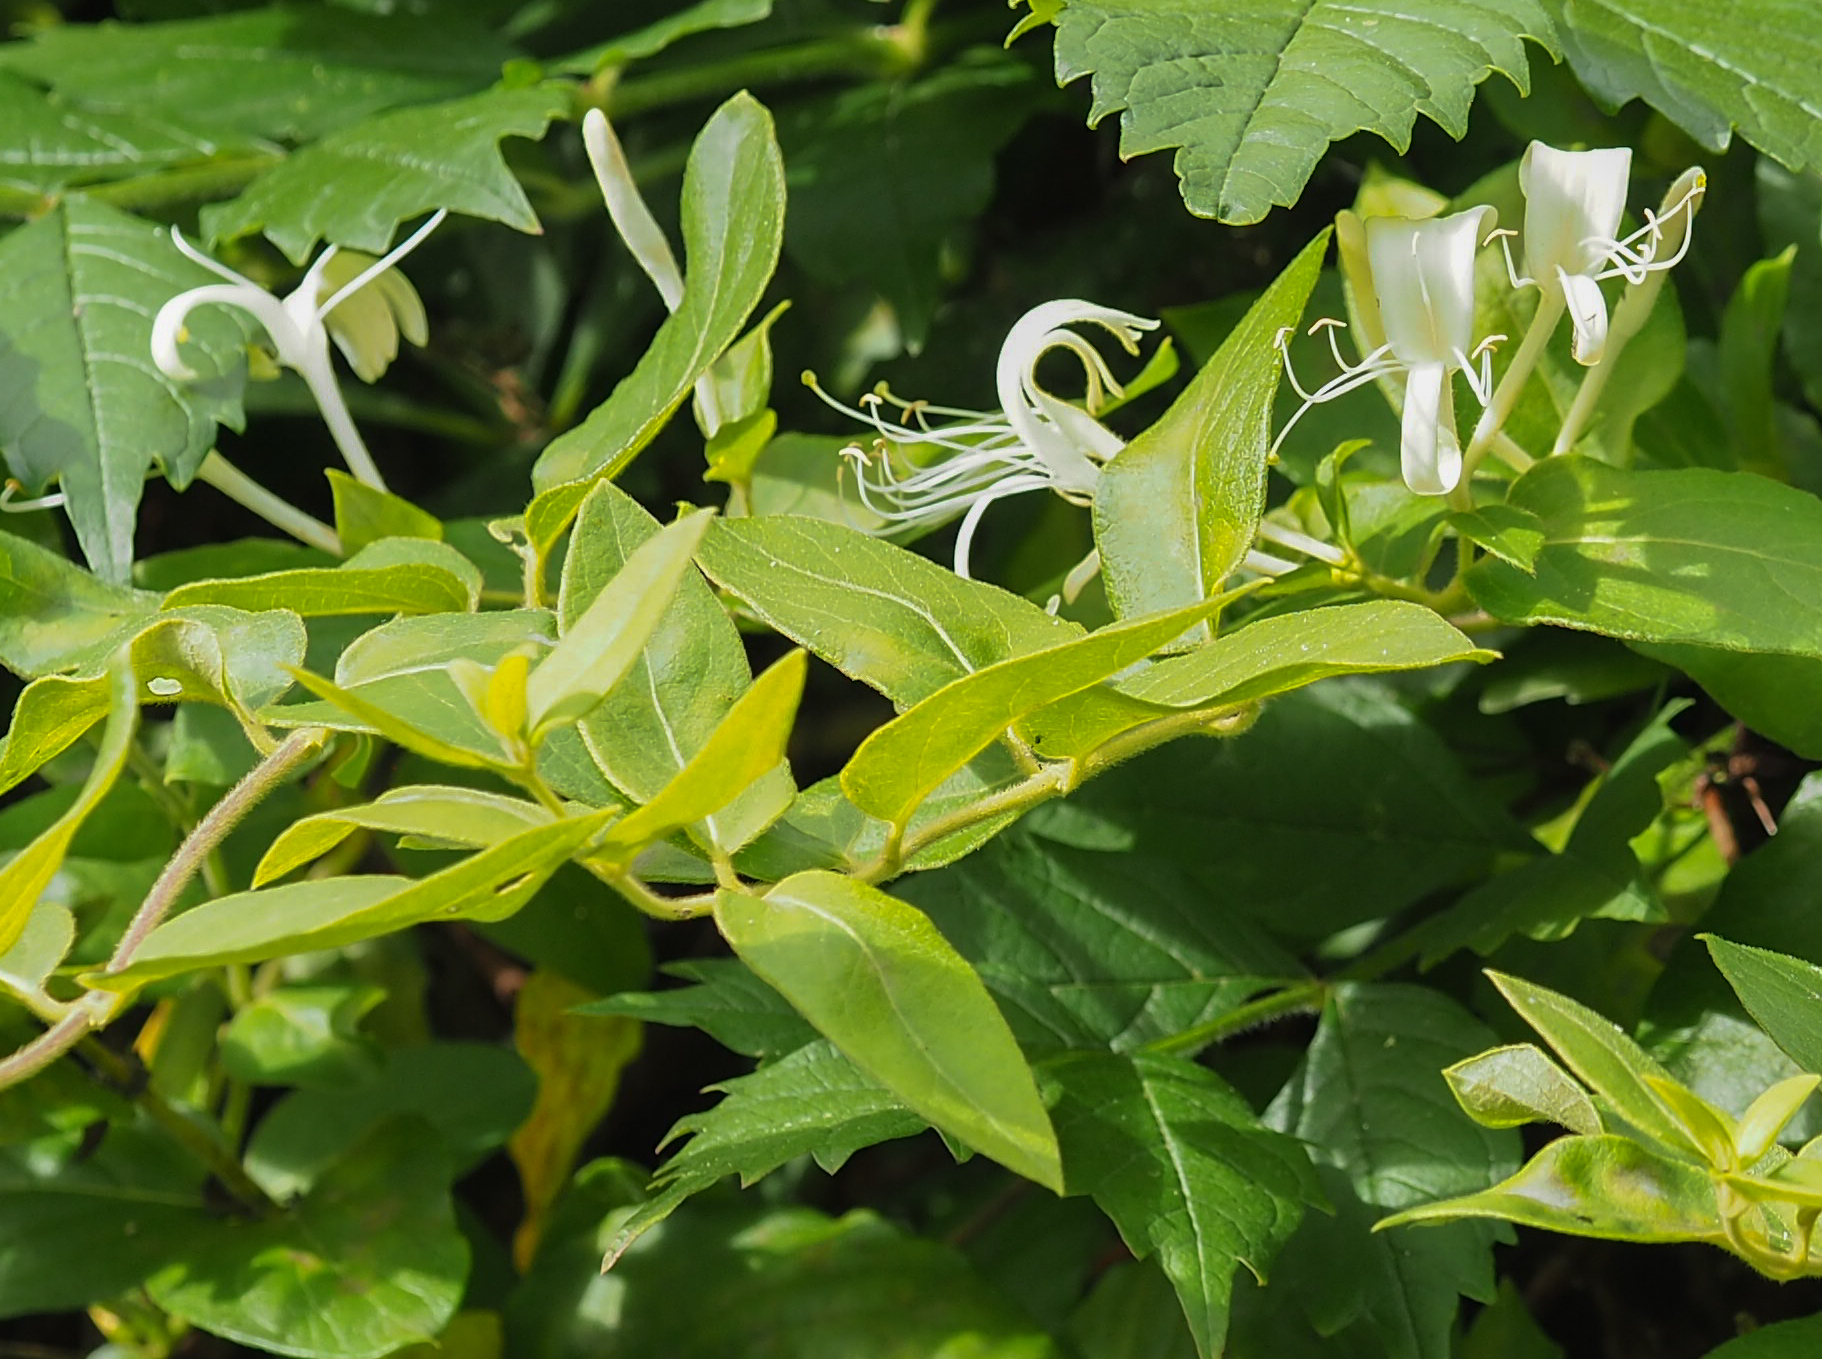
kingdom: Plantae
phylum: Tracheophyta
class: Magnoliopsida
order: Dipsacales
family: Caprifoliaceae
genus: Lonicera
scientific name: Lonicera japonica
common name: Japanese honeysuckle
